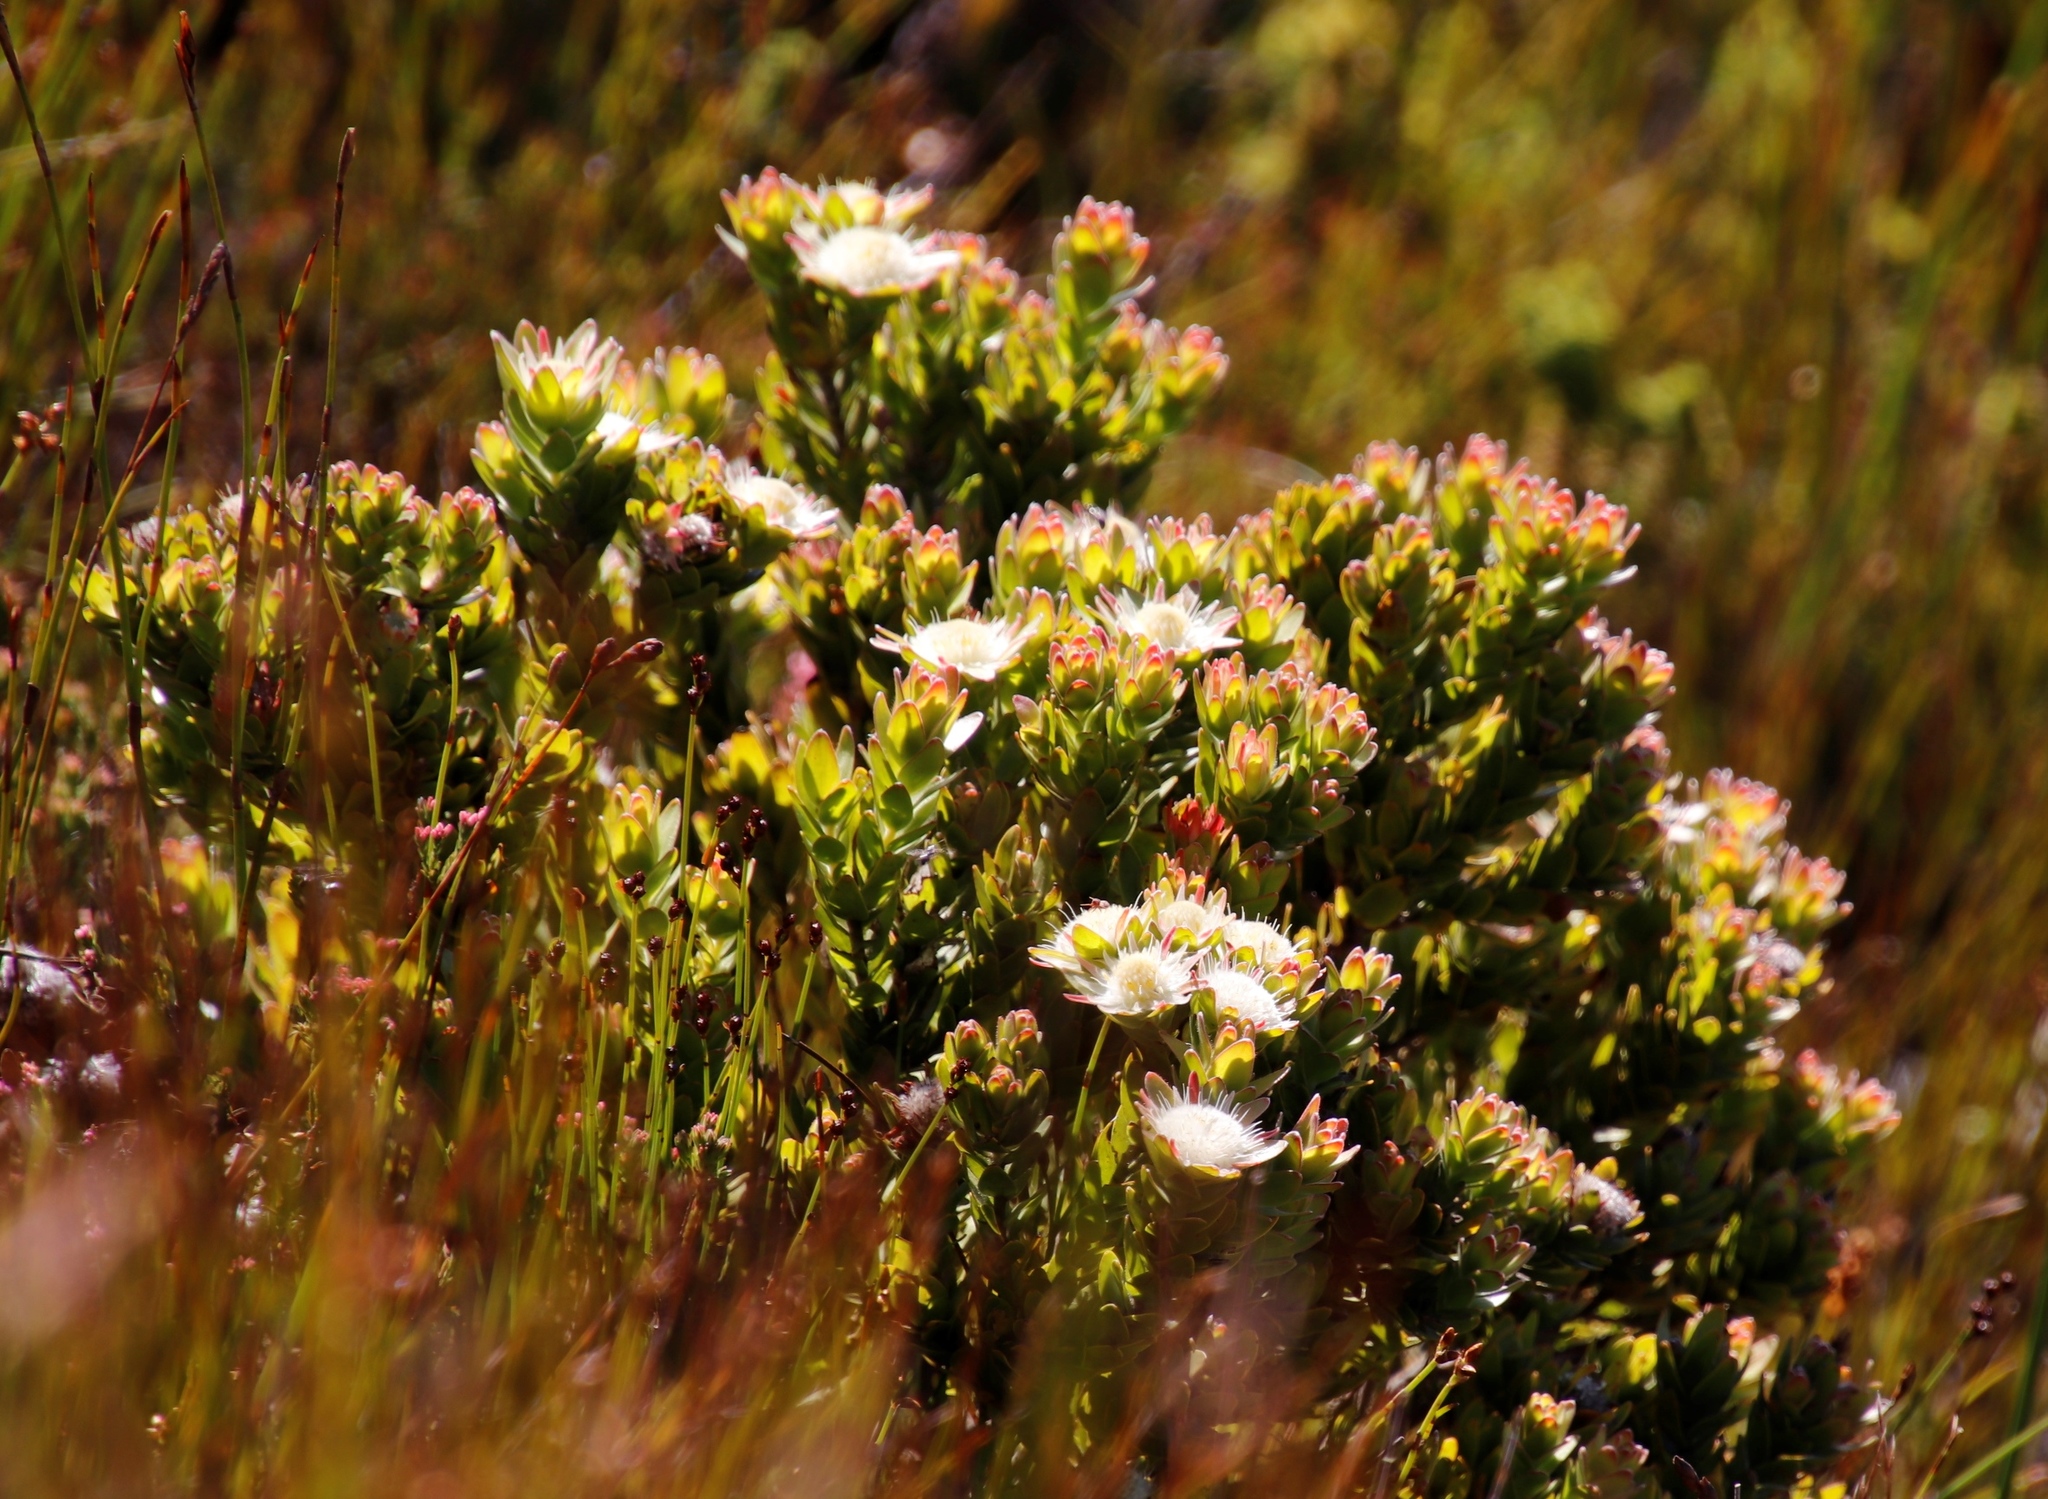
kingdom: Plantae
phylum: Tracheophyta
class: Magnoliopsida
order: Proteales
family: Proteaceae
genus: Diastella
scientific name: Diastella thymelaeoides
